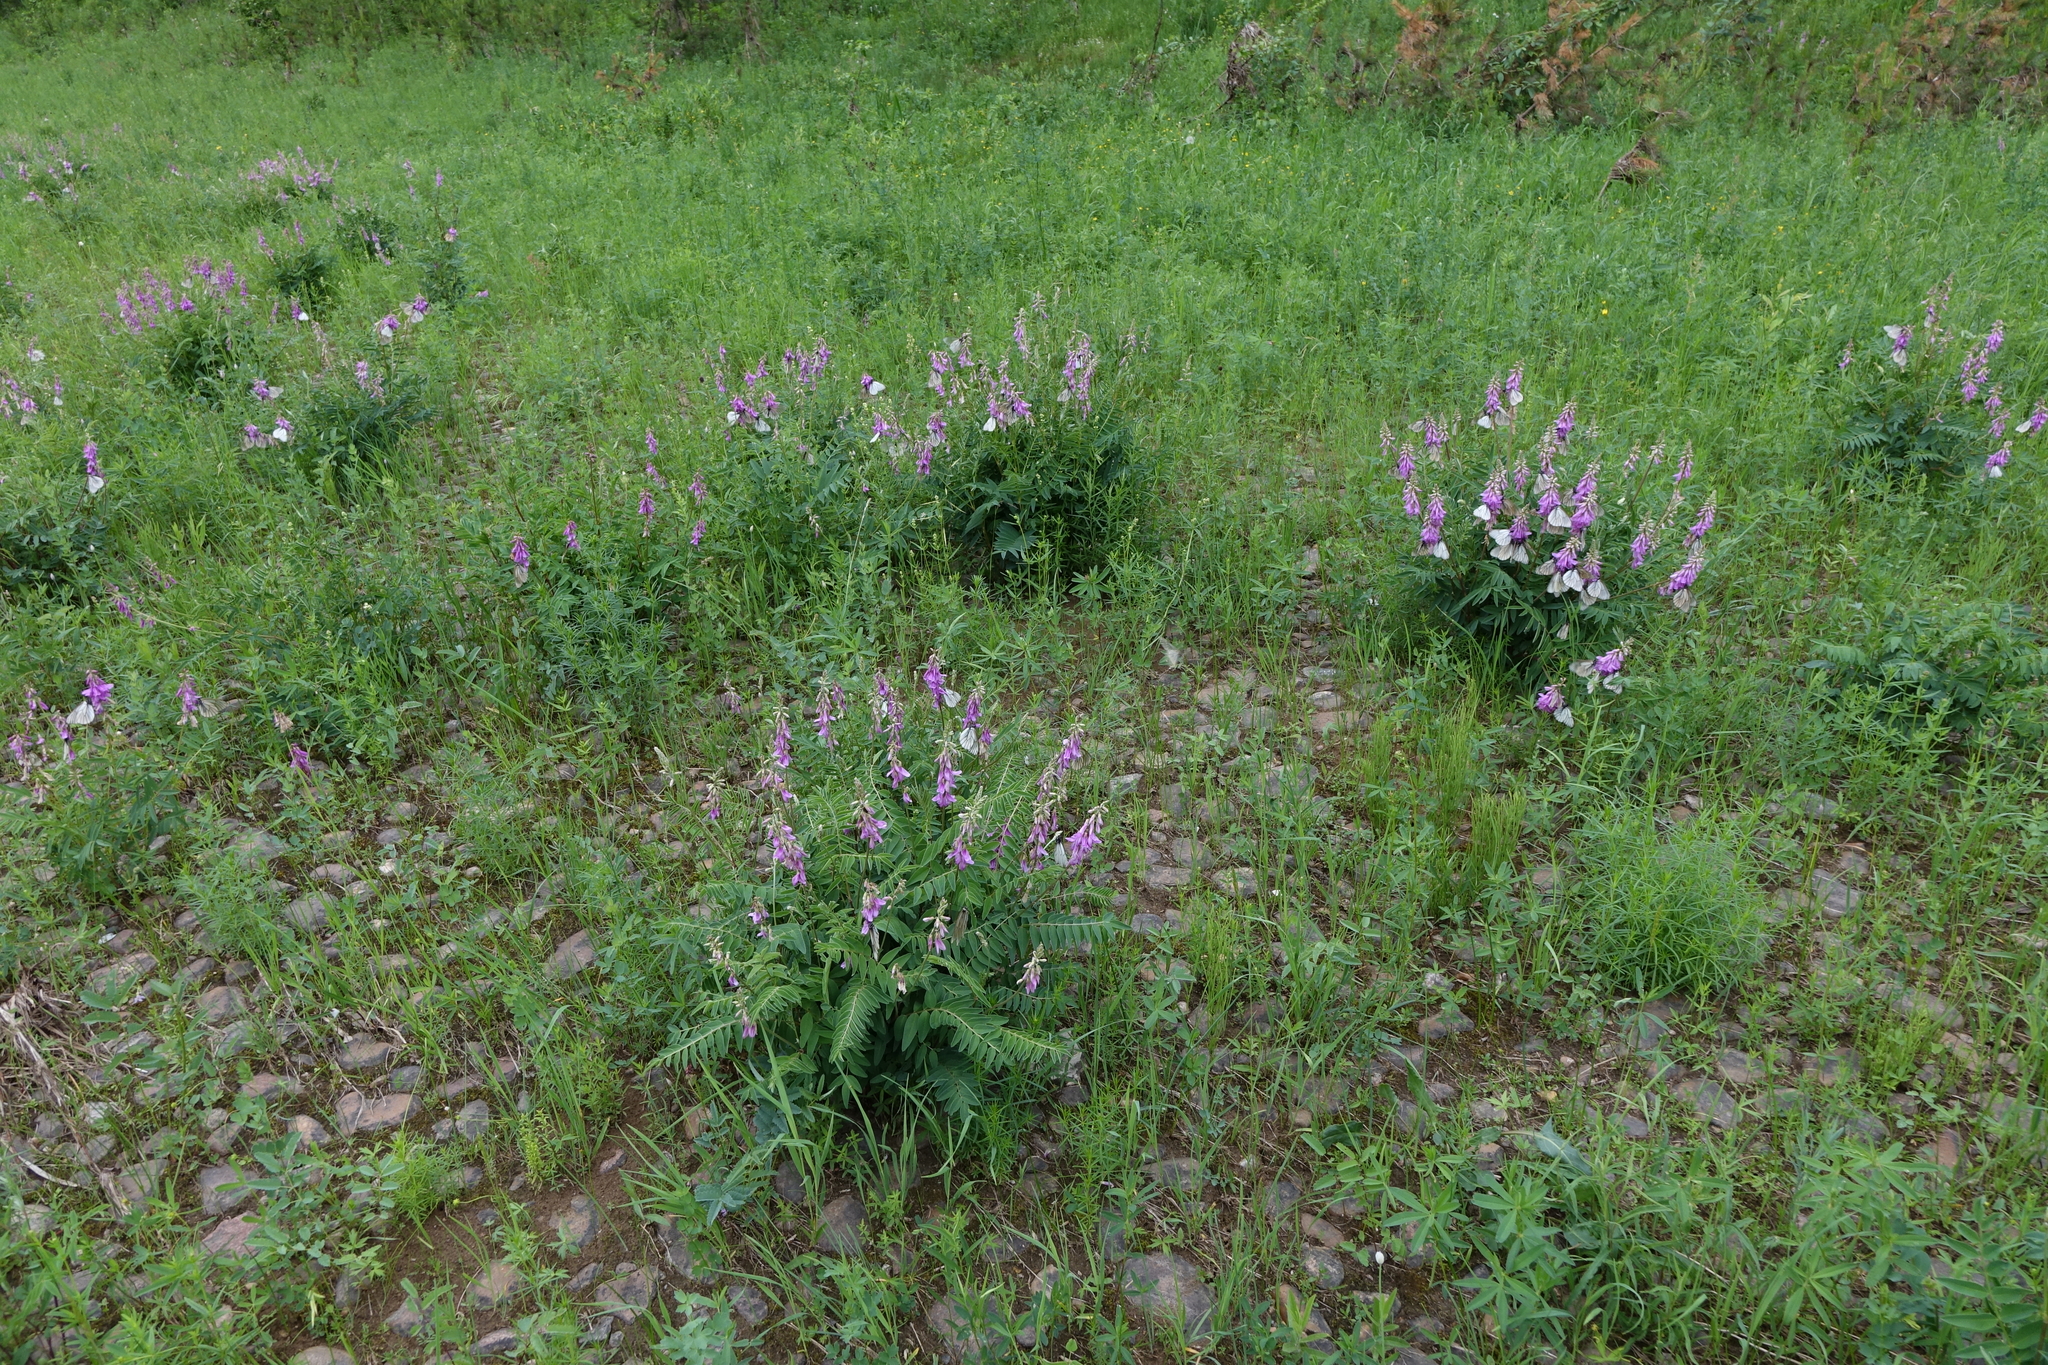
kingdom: Animalia
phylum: Arthropoda
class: Insecta
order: Lepidoptera
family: Pieridae
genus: Aporia
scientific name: Aporia crataegi
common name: Black-veined white
